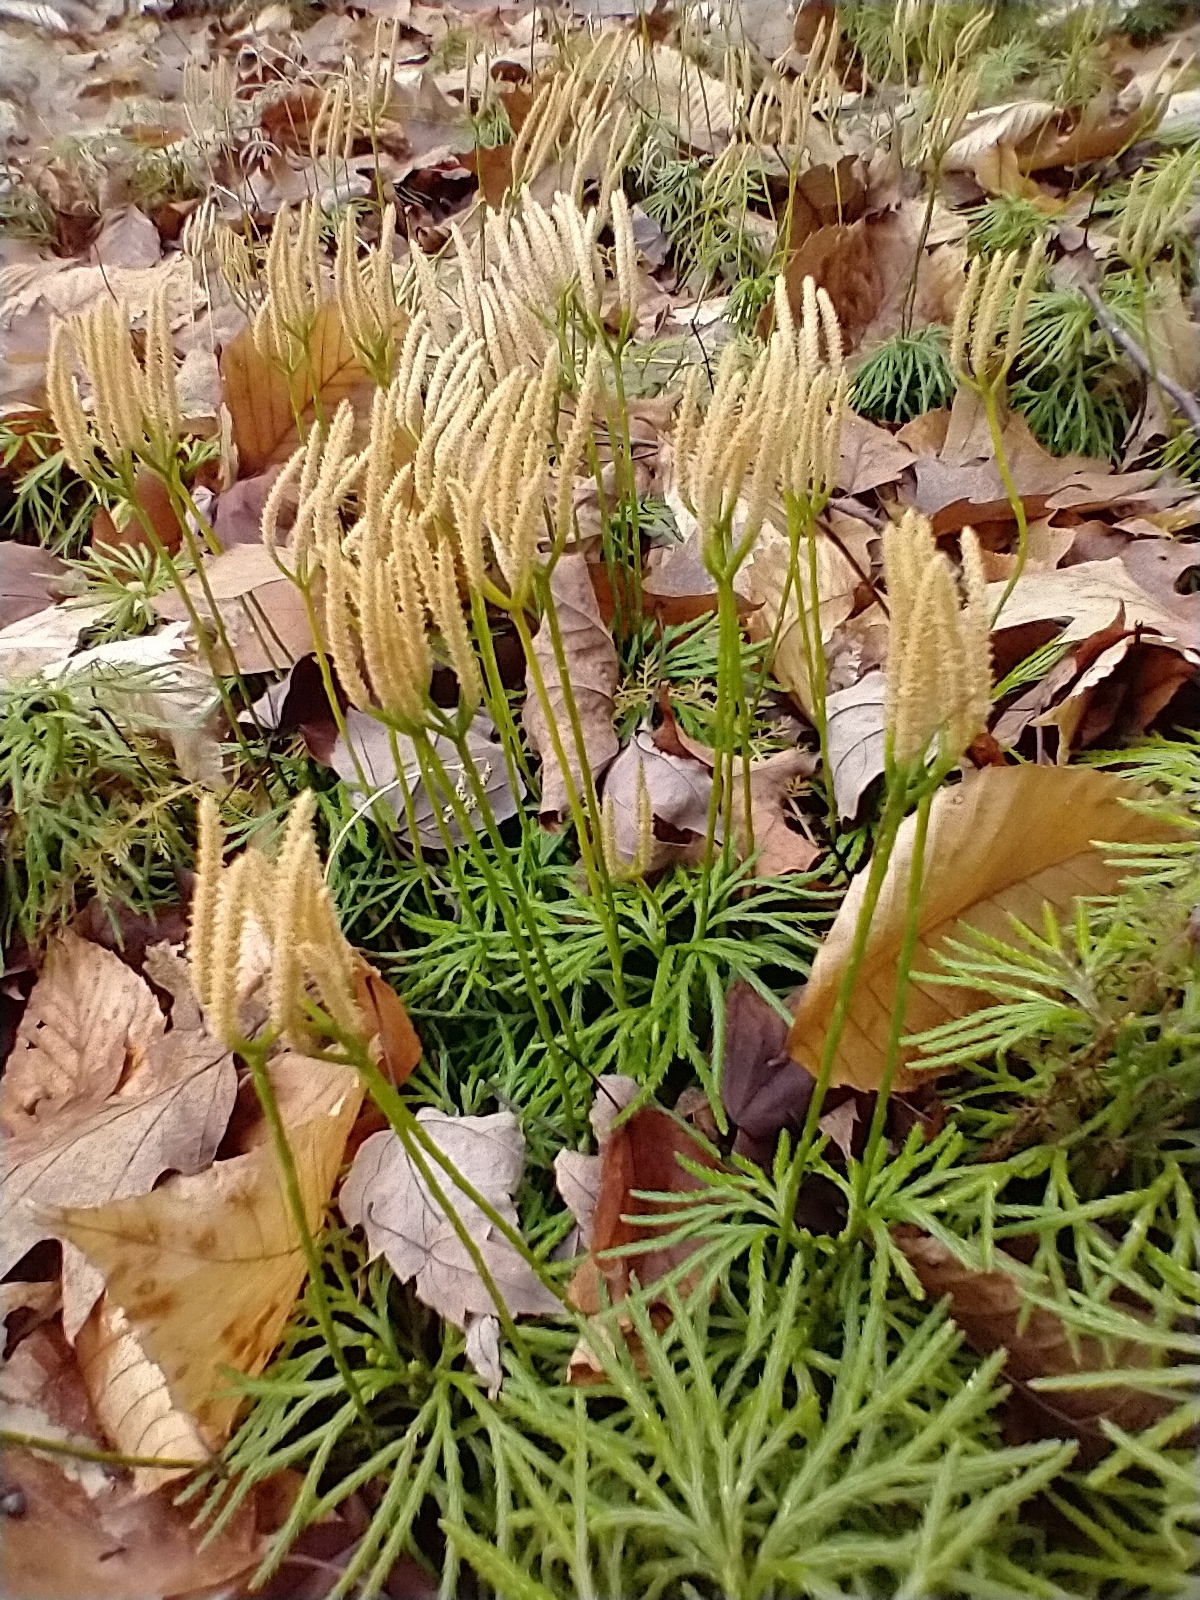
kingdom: Plantae
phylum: Tracheophyta
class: Lycopodiopsida
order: Lycopodiales
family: Lycopodiaceae
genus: Diphasiastrum
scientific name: Diphasiastrum digitatum
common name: Southern running-pine
